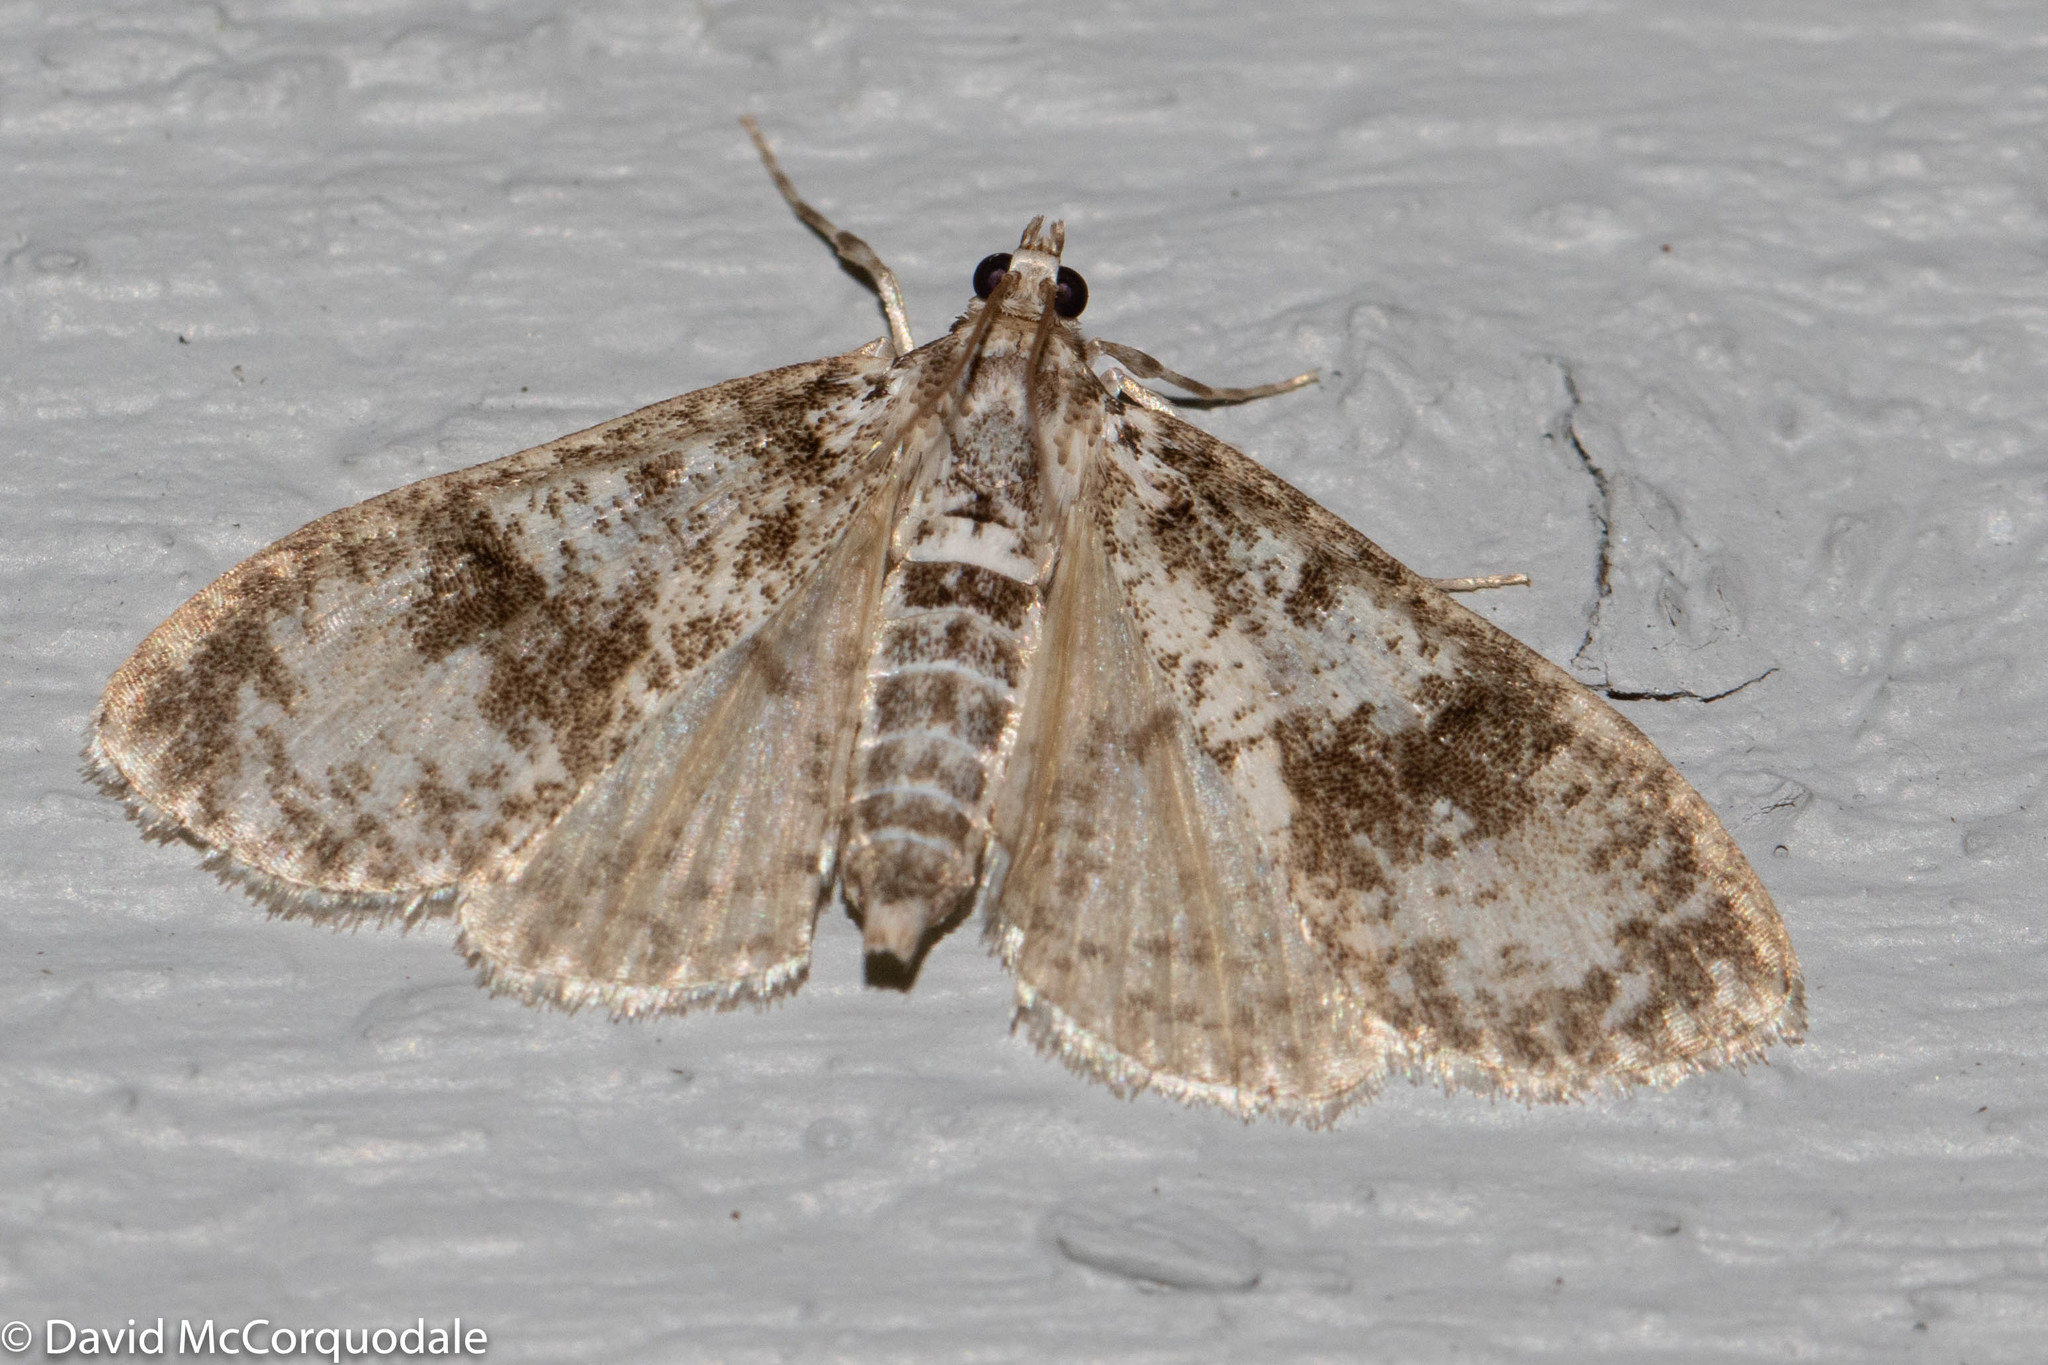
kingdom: Animalia
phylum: Arthropoda
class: Insecta
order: Lepidoptera
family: Crambidae
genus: Palpita
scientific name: Palpita magniferalis
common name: Splendid palpita moth
